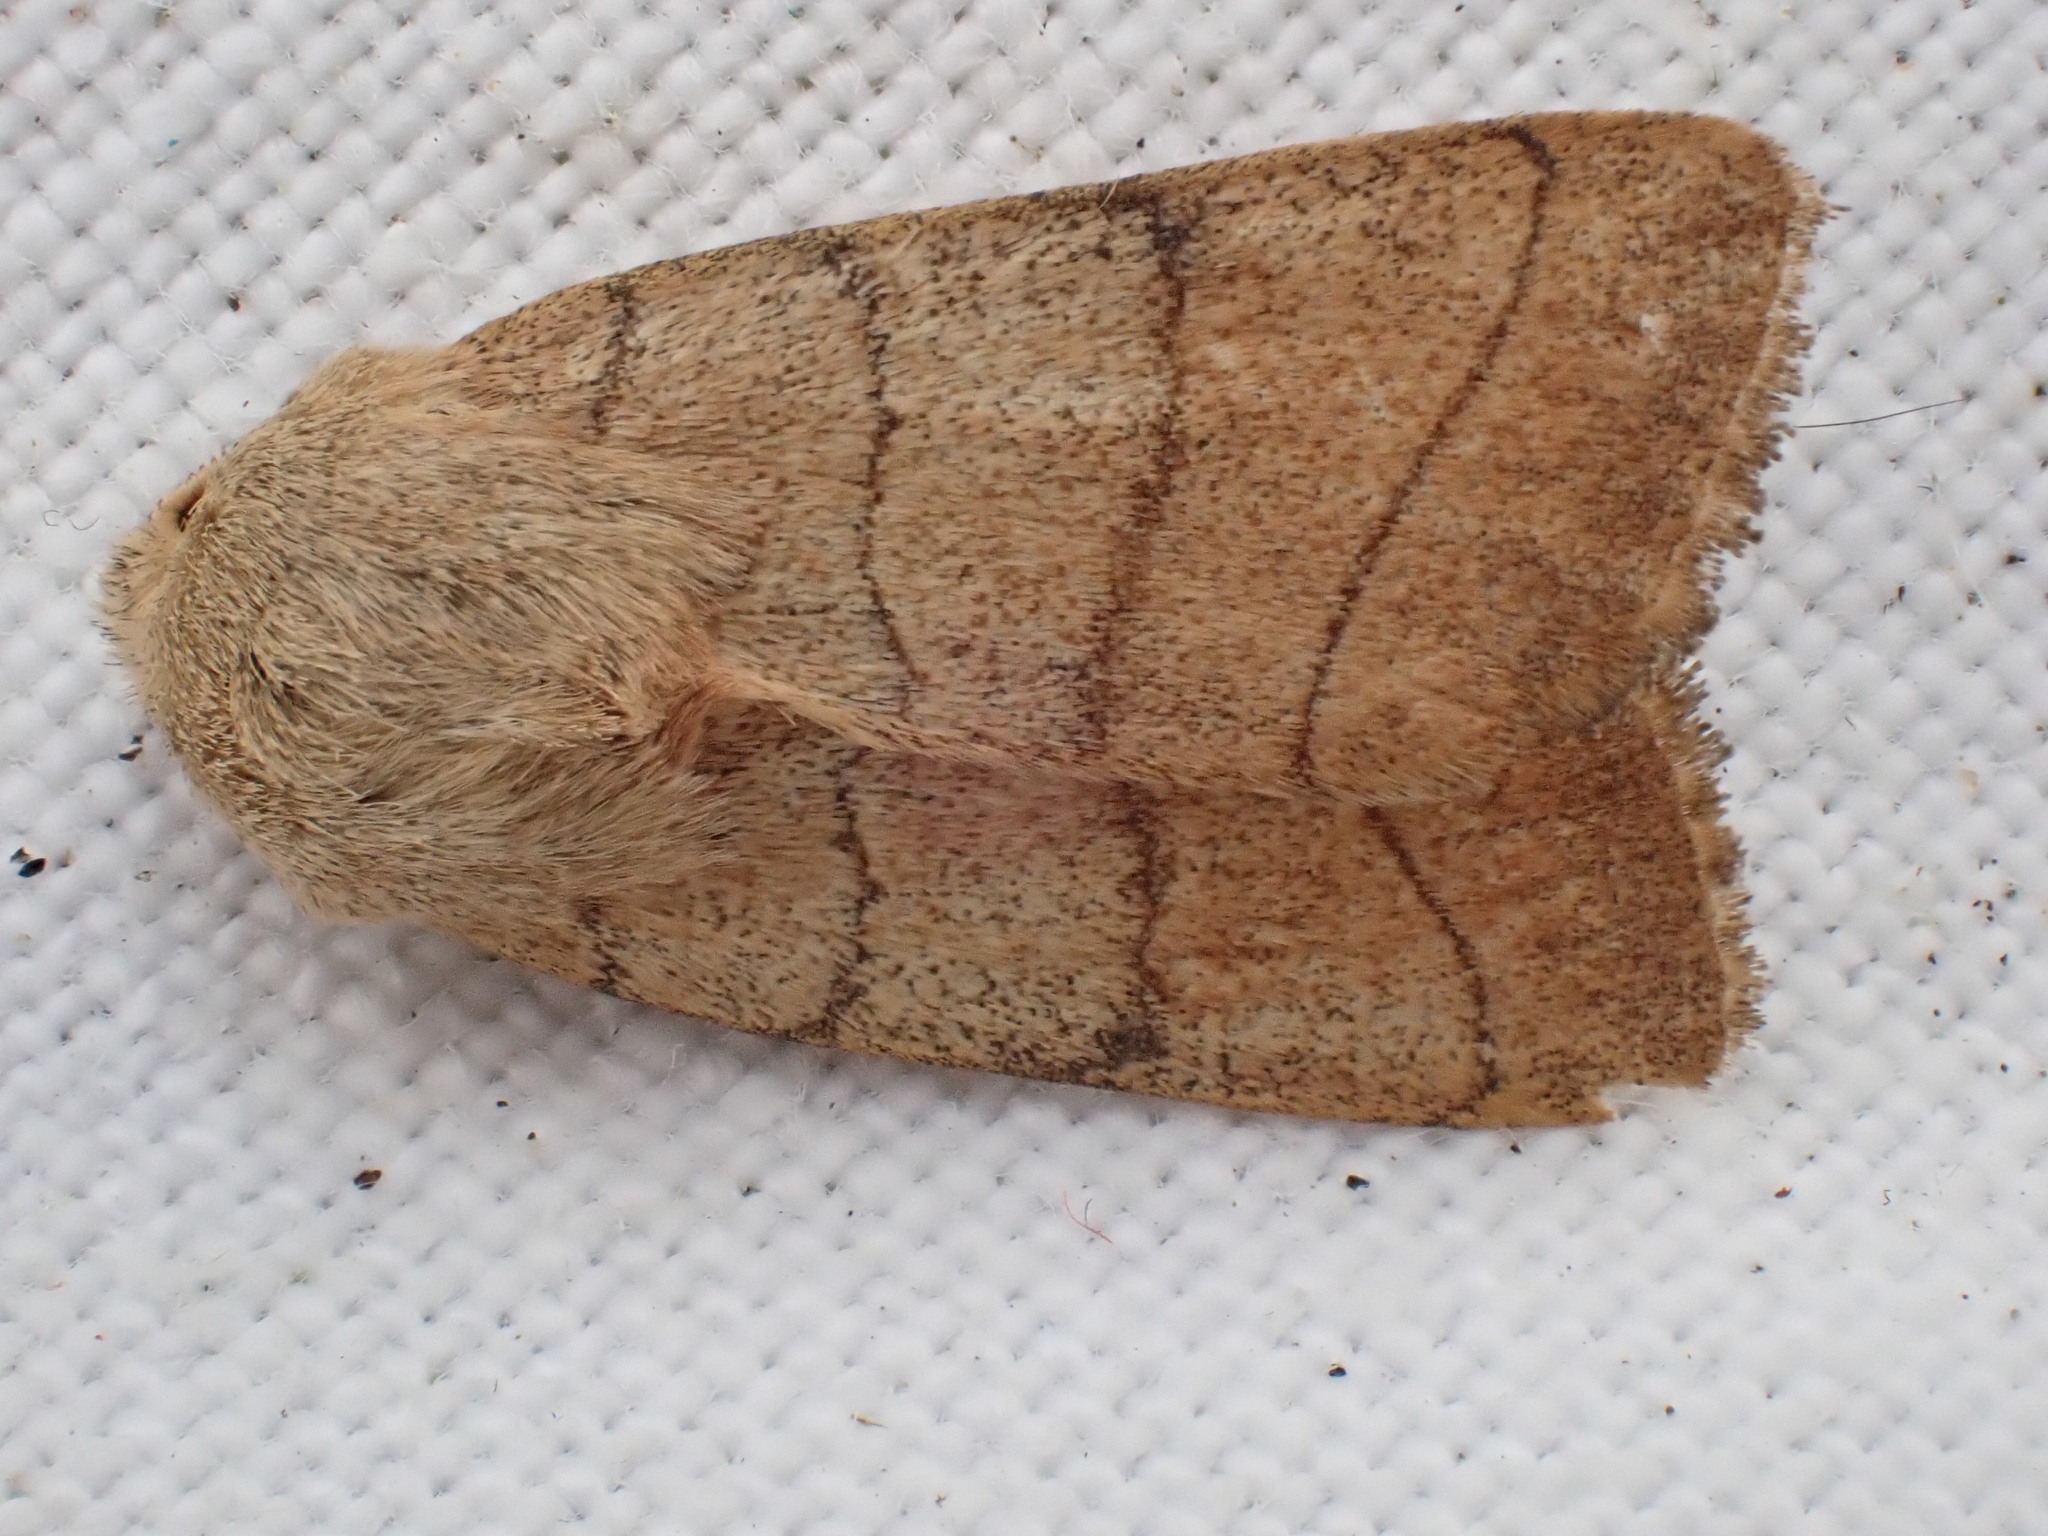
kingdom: Animalia
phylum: Arthropoda
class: Insecta
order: Lepidoptera
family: Noctuidae
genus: Charanyca
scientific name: Charanyca trigrammica
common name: Treble lines
